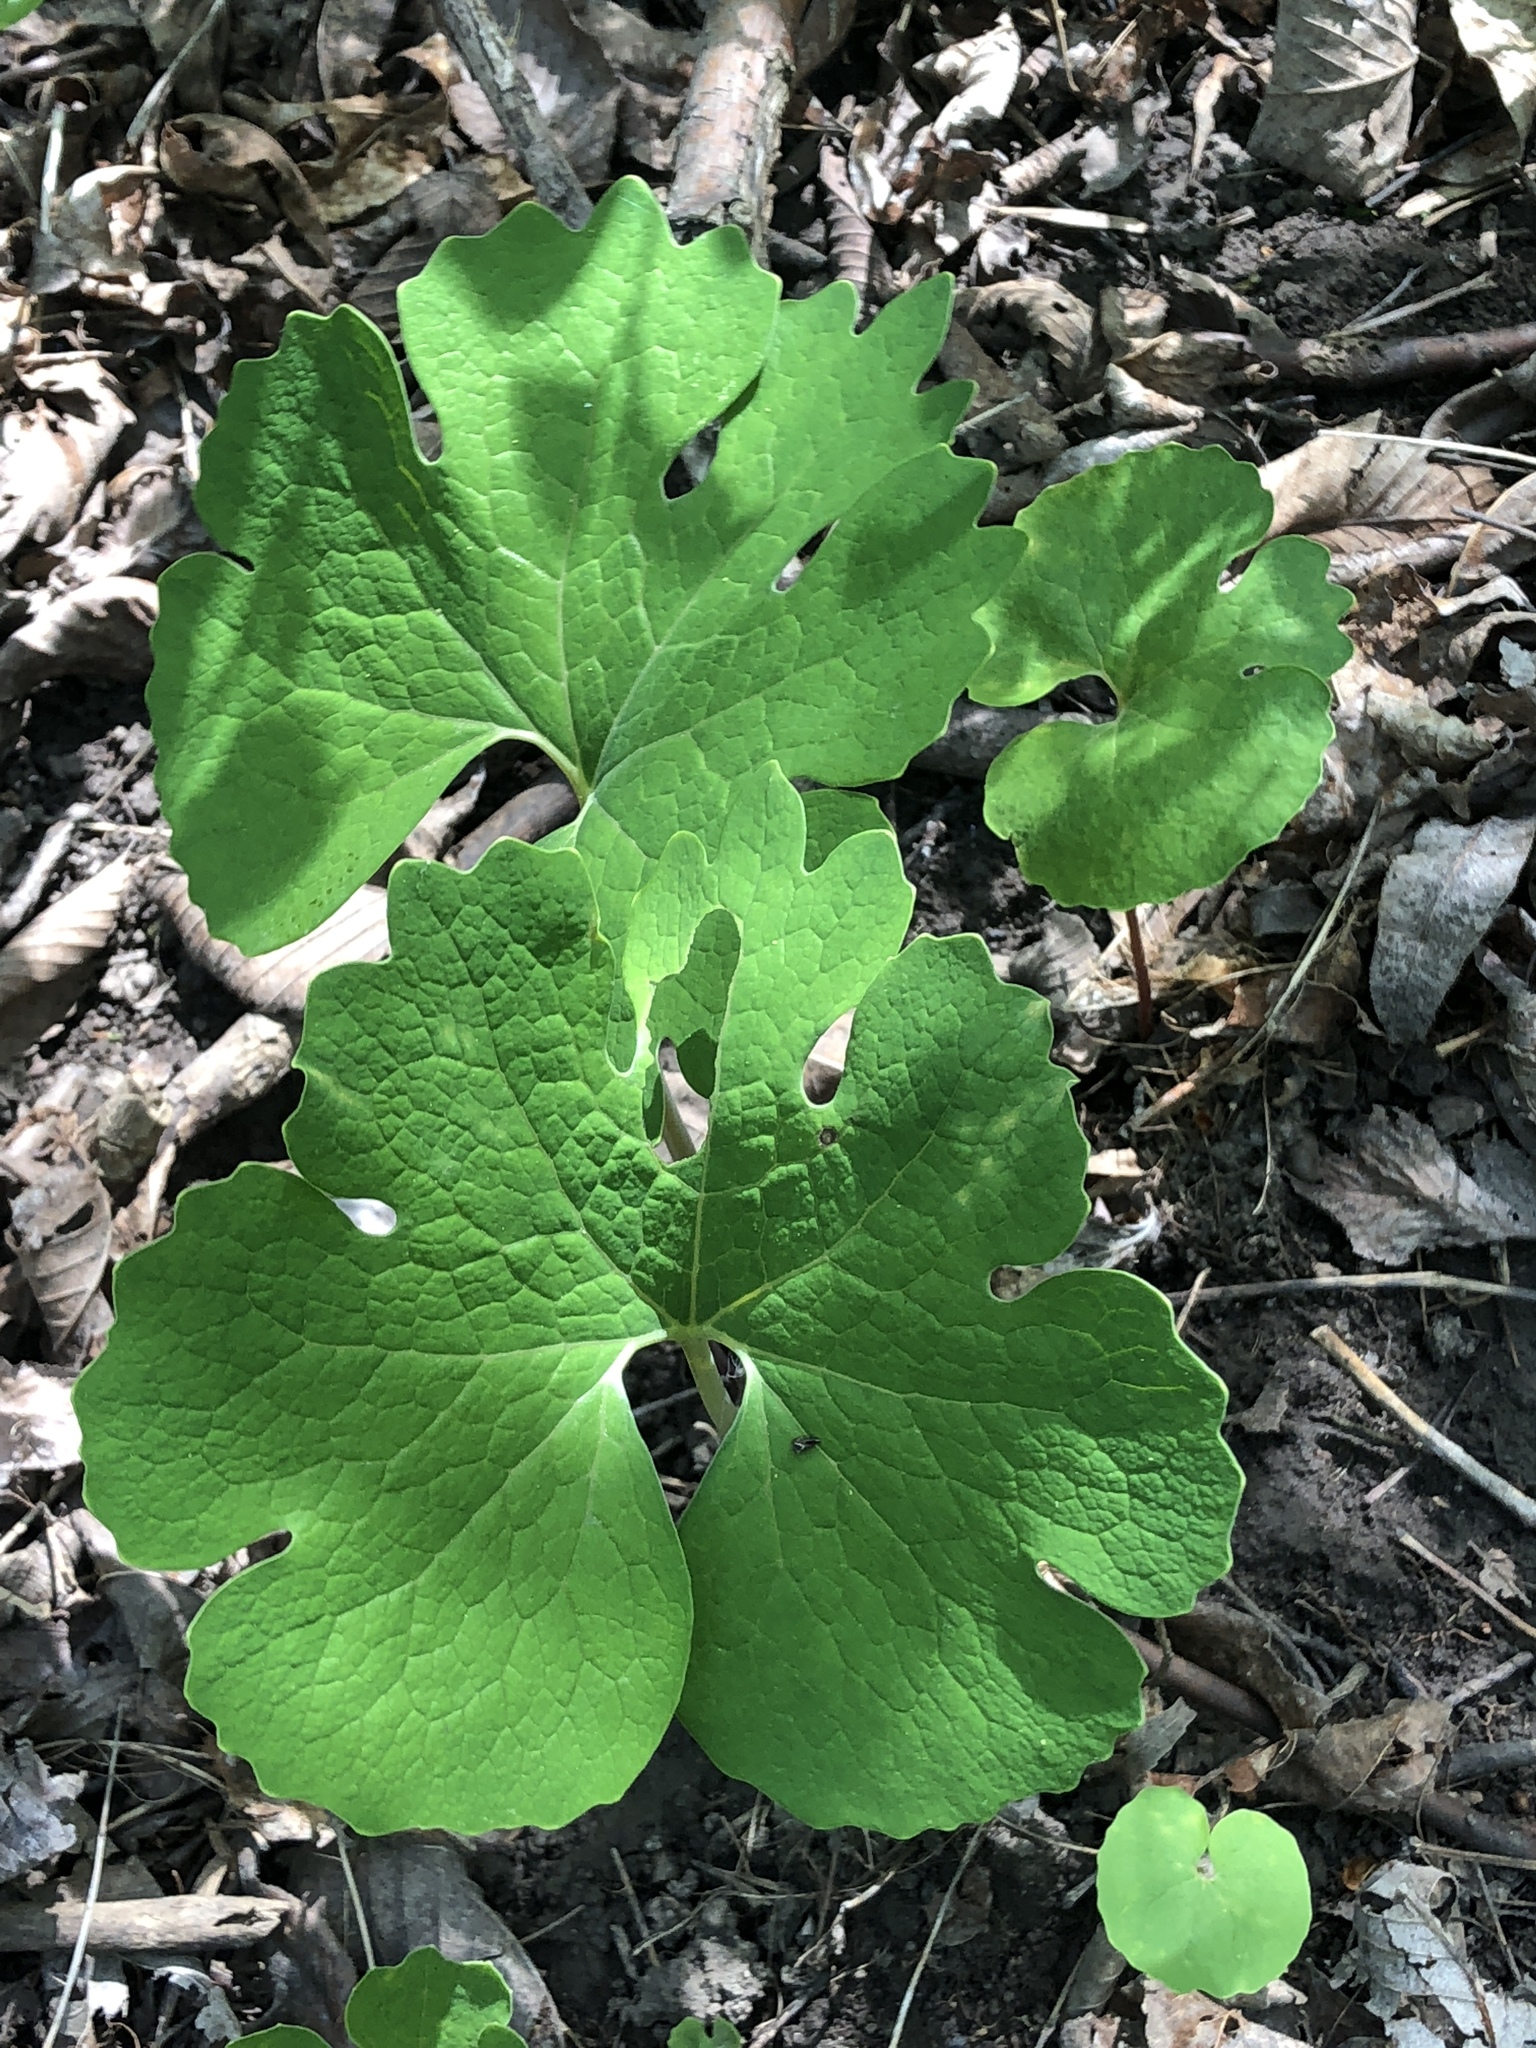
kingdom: Plantae
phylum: Tracheophyta
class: Magnoliopsida
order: Ranunculales
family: Papaveraceae
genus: Sanguinaria
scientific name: Sanguinaria canadensis
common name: Bloodroot
